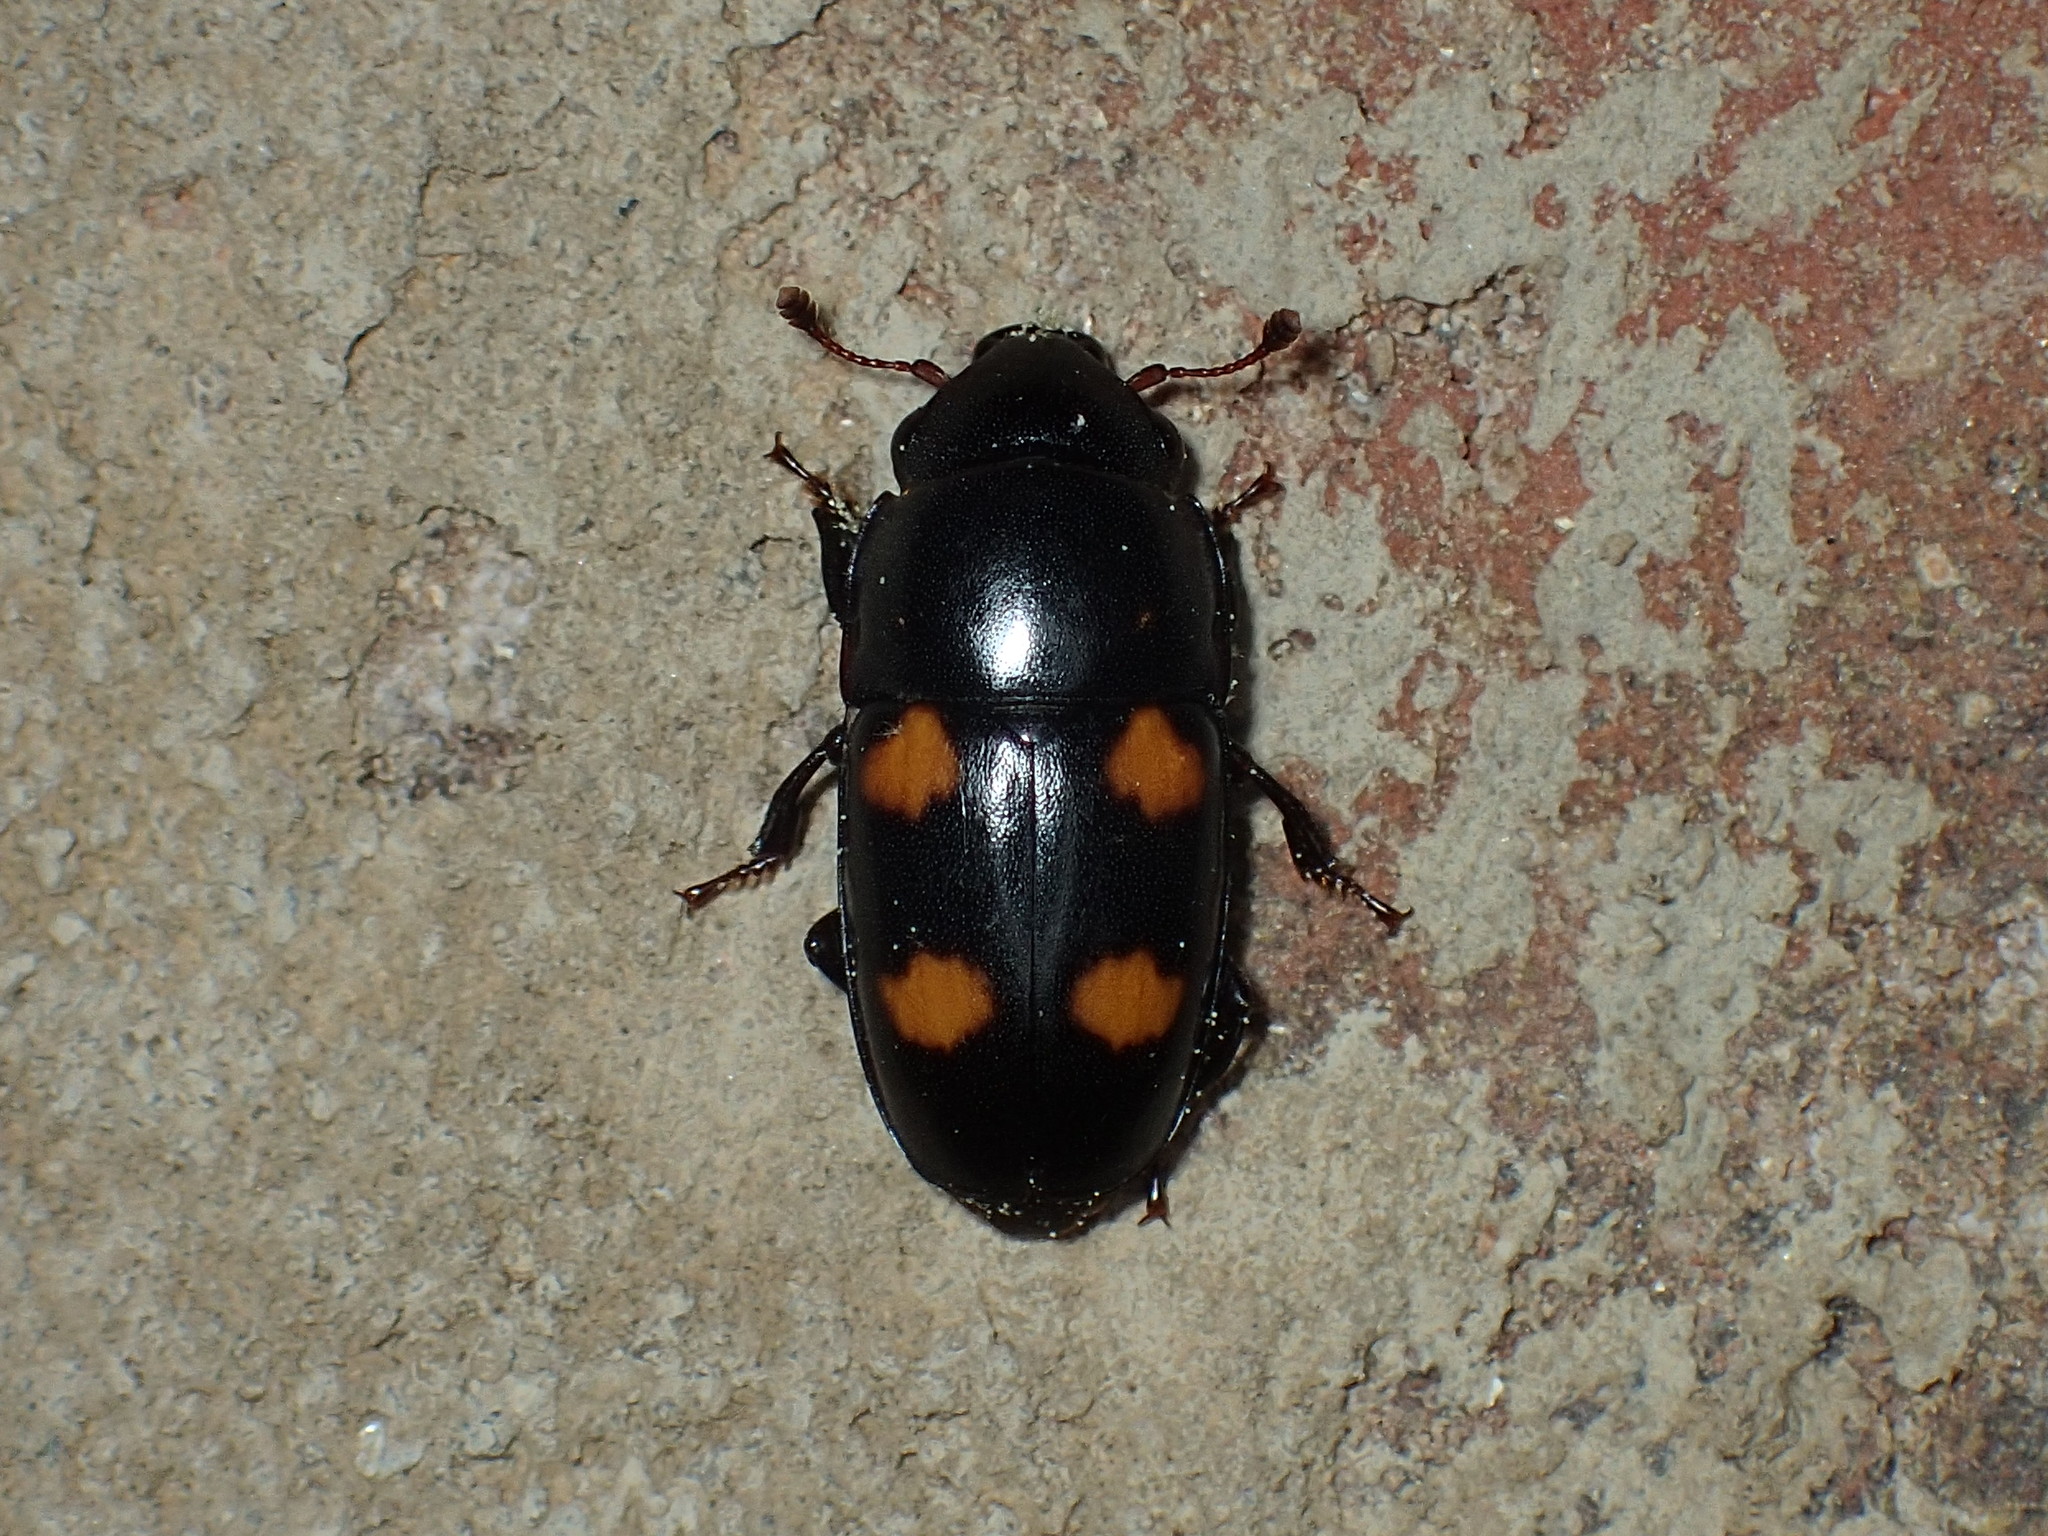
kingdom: Animalia
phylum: Arthropoda
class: Insecta
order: Coleoptera
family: Nitidulidae
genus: Glischrochilus
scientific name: Glischrochilus obtusus
